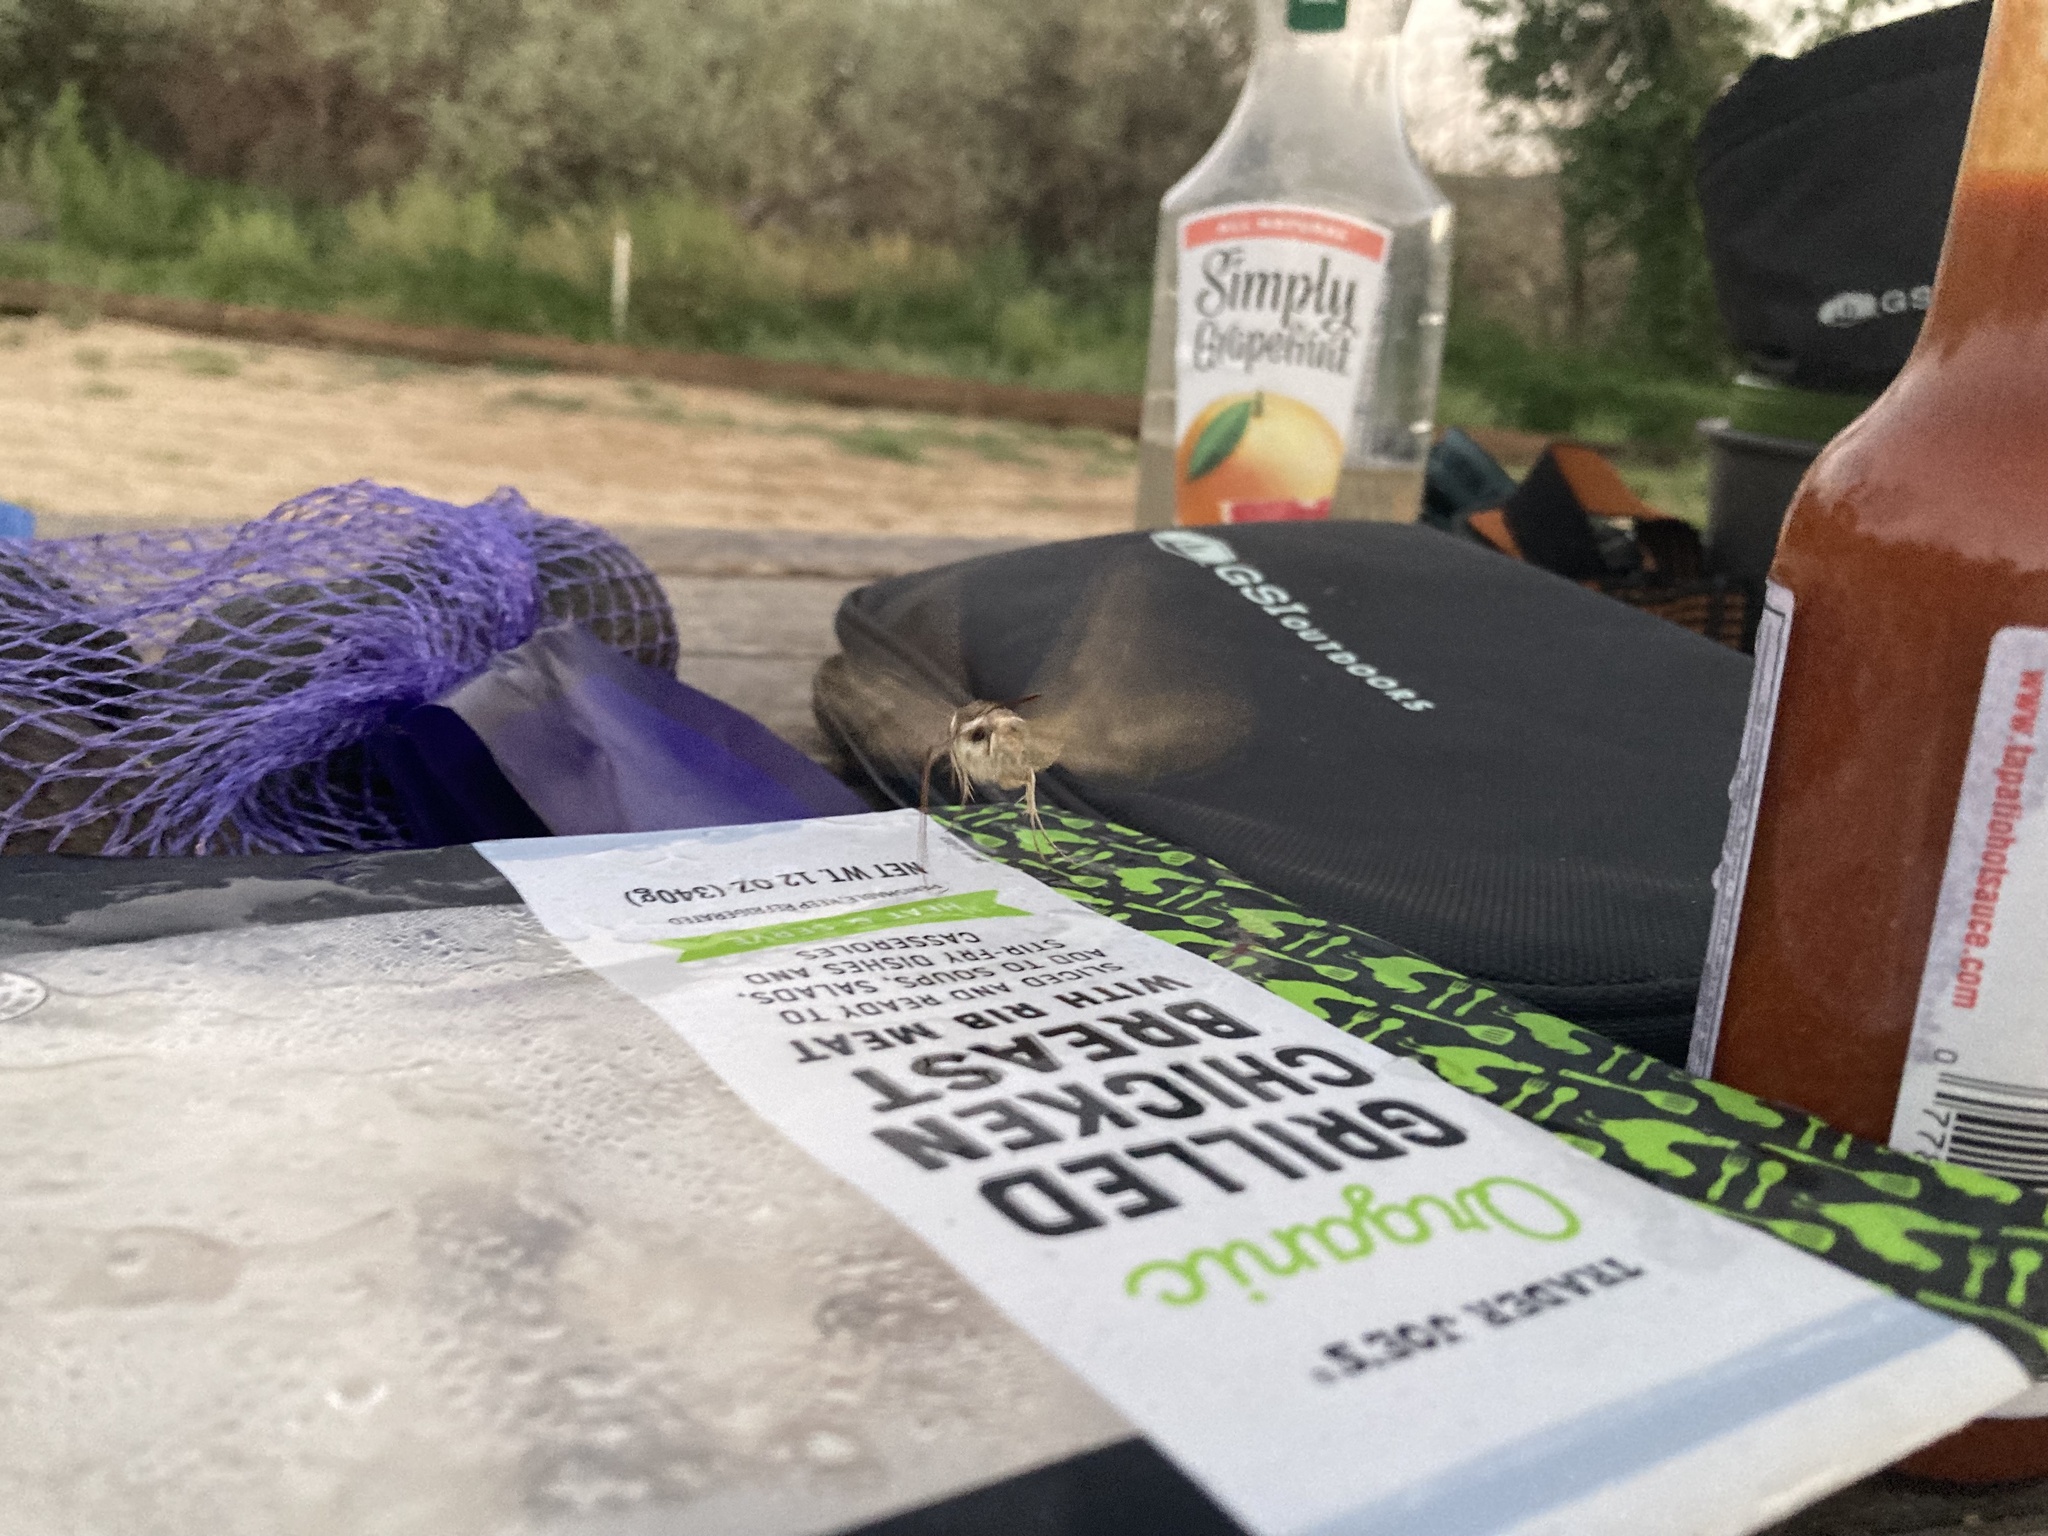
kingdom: Animalia
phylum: Arthropoda
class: Insecta
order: Lepidoptera
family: Sphingidae
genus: Hyles
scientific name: Hyles lineata
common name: White-lined sphinx
